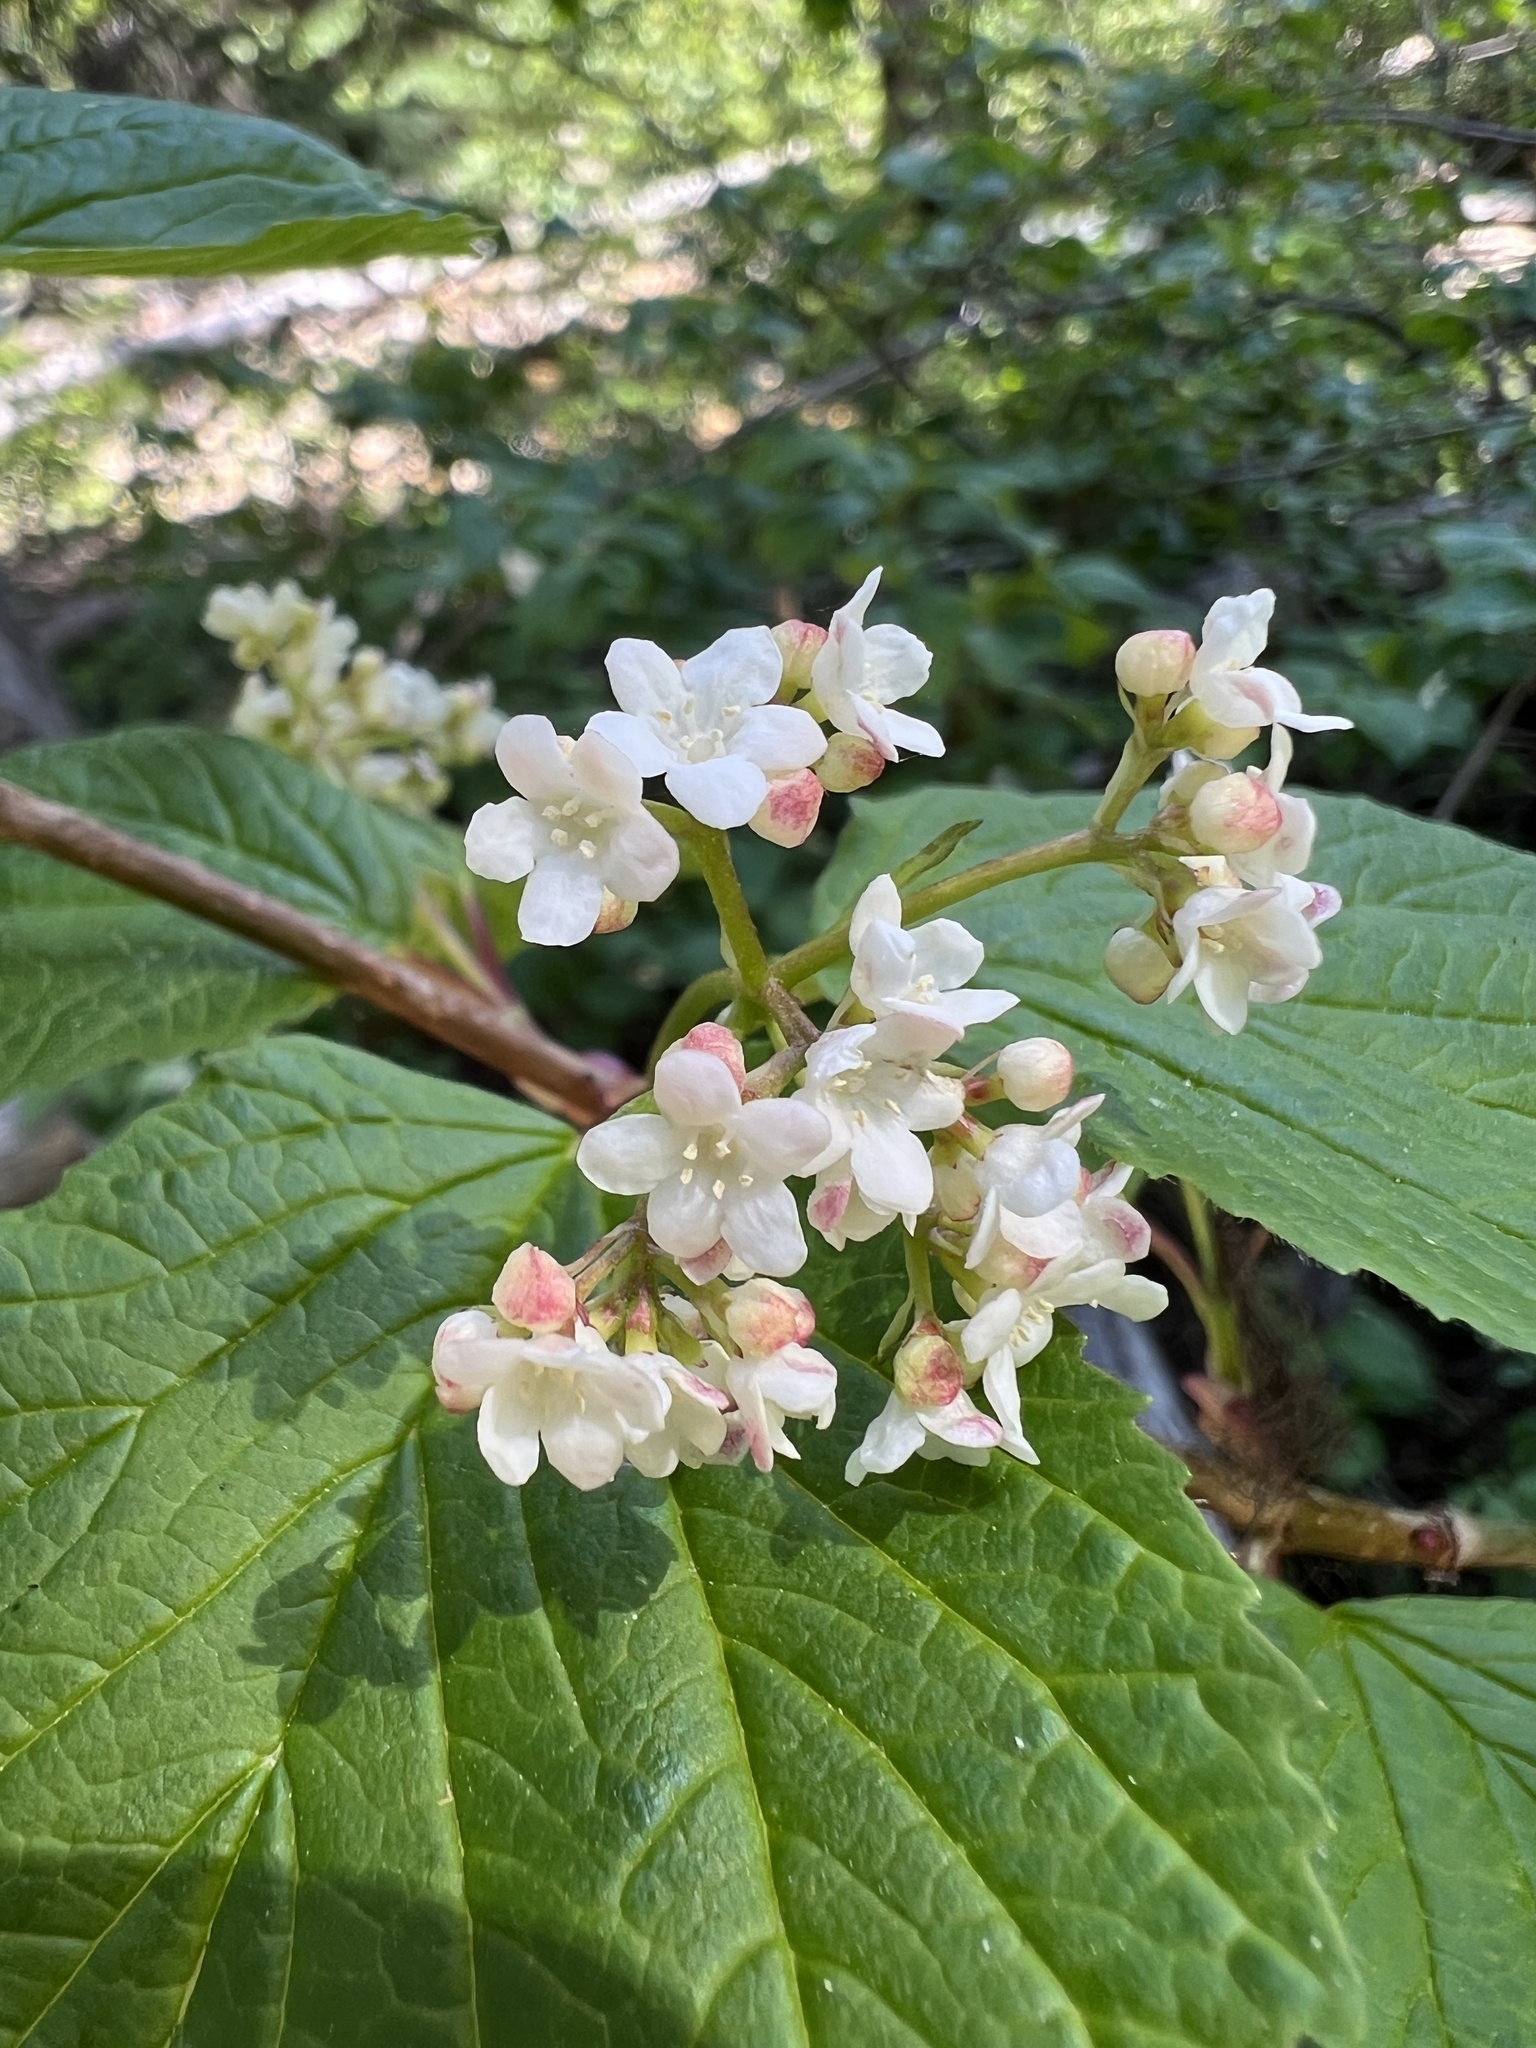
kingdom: Plantae
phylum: Tracheophyta
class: Magnoliopsida
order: Dipsacales
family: Viburnaceae
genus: Viburnum
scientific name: Viburnum edule
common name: Mooseberry
